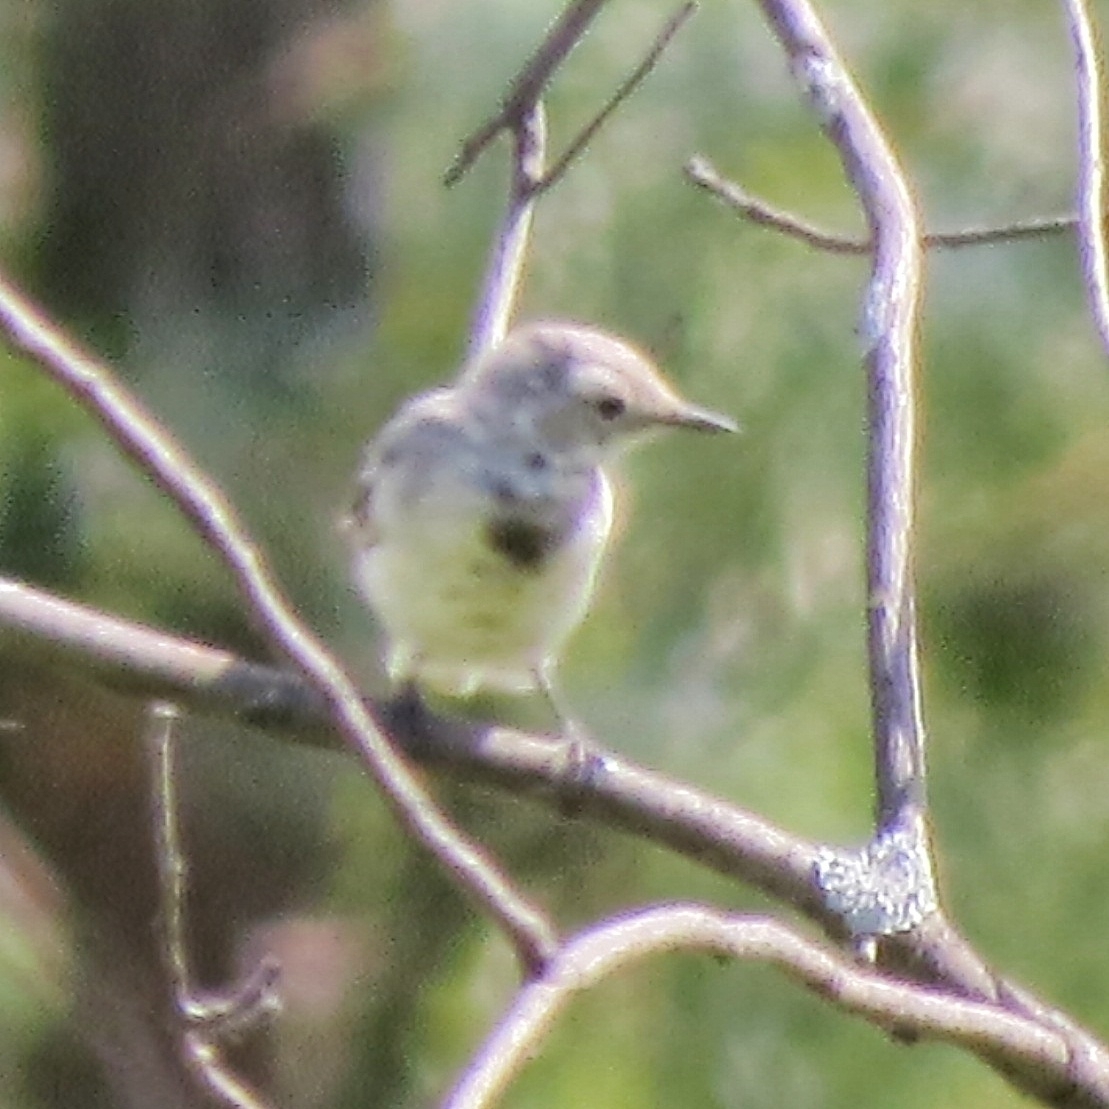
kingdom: Animalia
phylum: Chordata
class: Aves
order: Passeriformes
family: Motacillidae
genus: Motacilla
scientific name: Motacilla alba
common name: White wagtail
